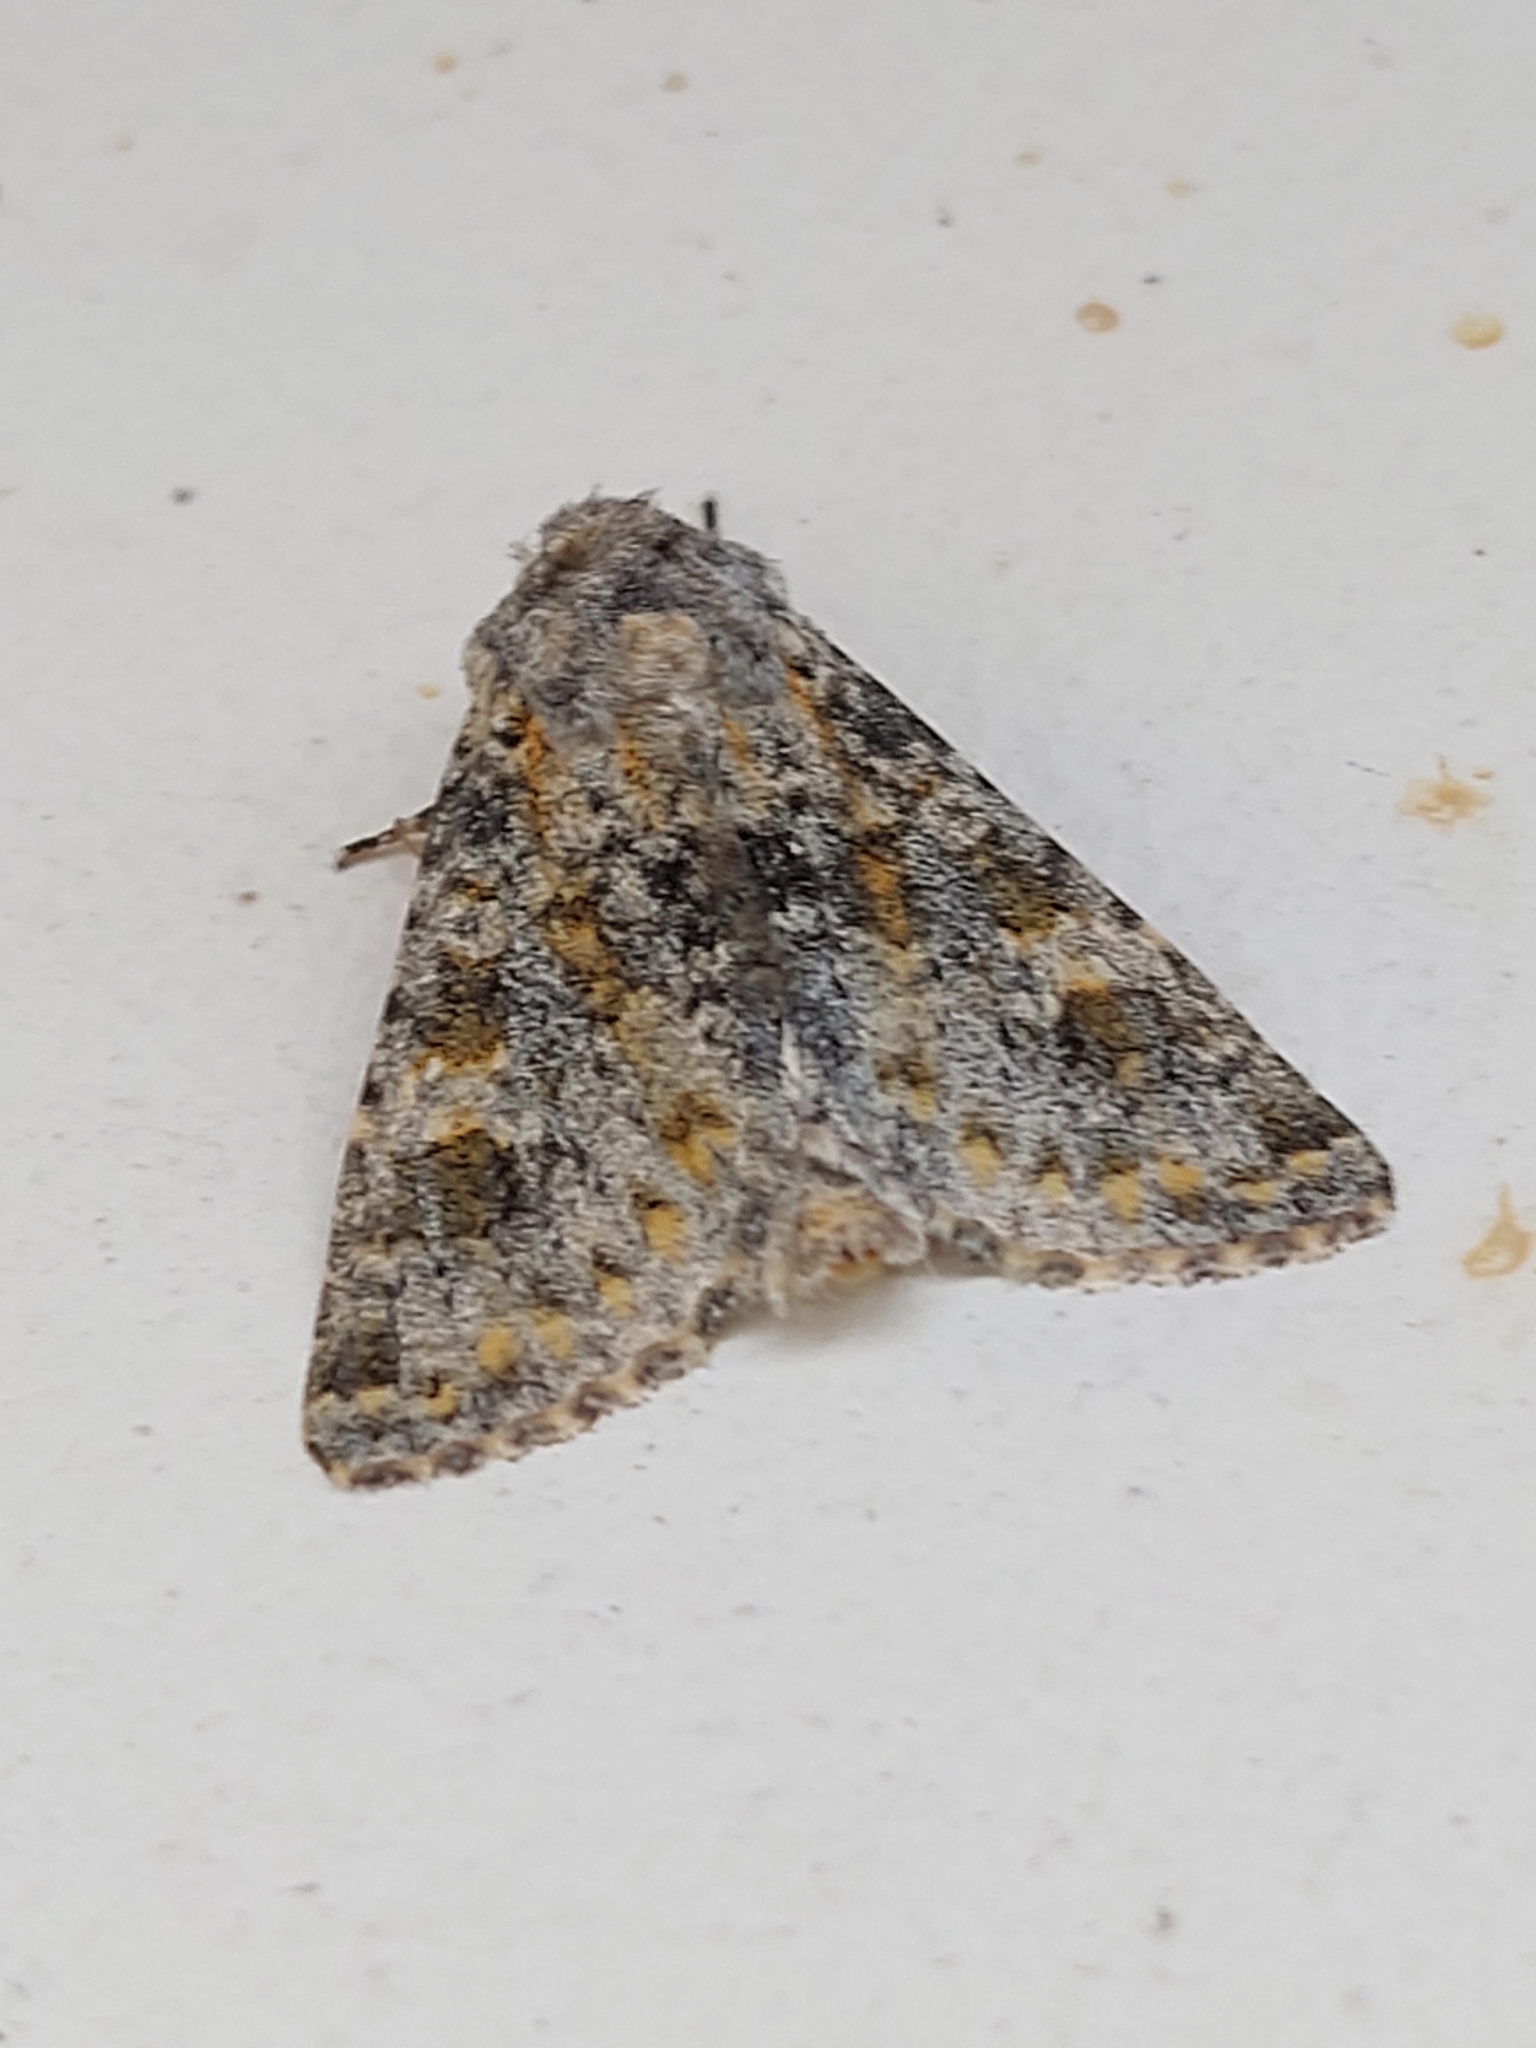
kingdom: Animalia
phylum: Arthropoda
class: Insecta
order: Lepidoptera
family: Noctuidae
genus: Polymixis
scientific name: Polymixis rufocincta
